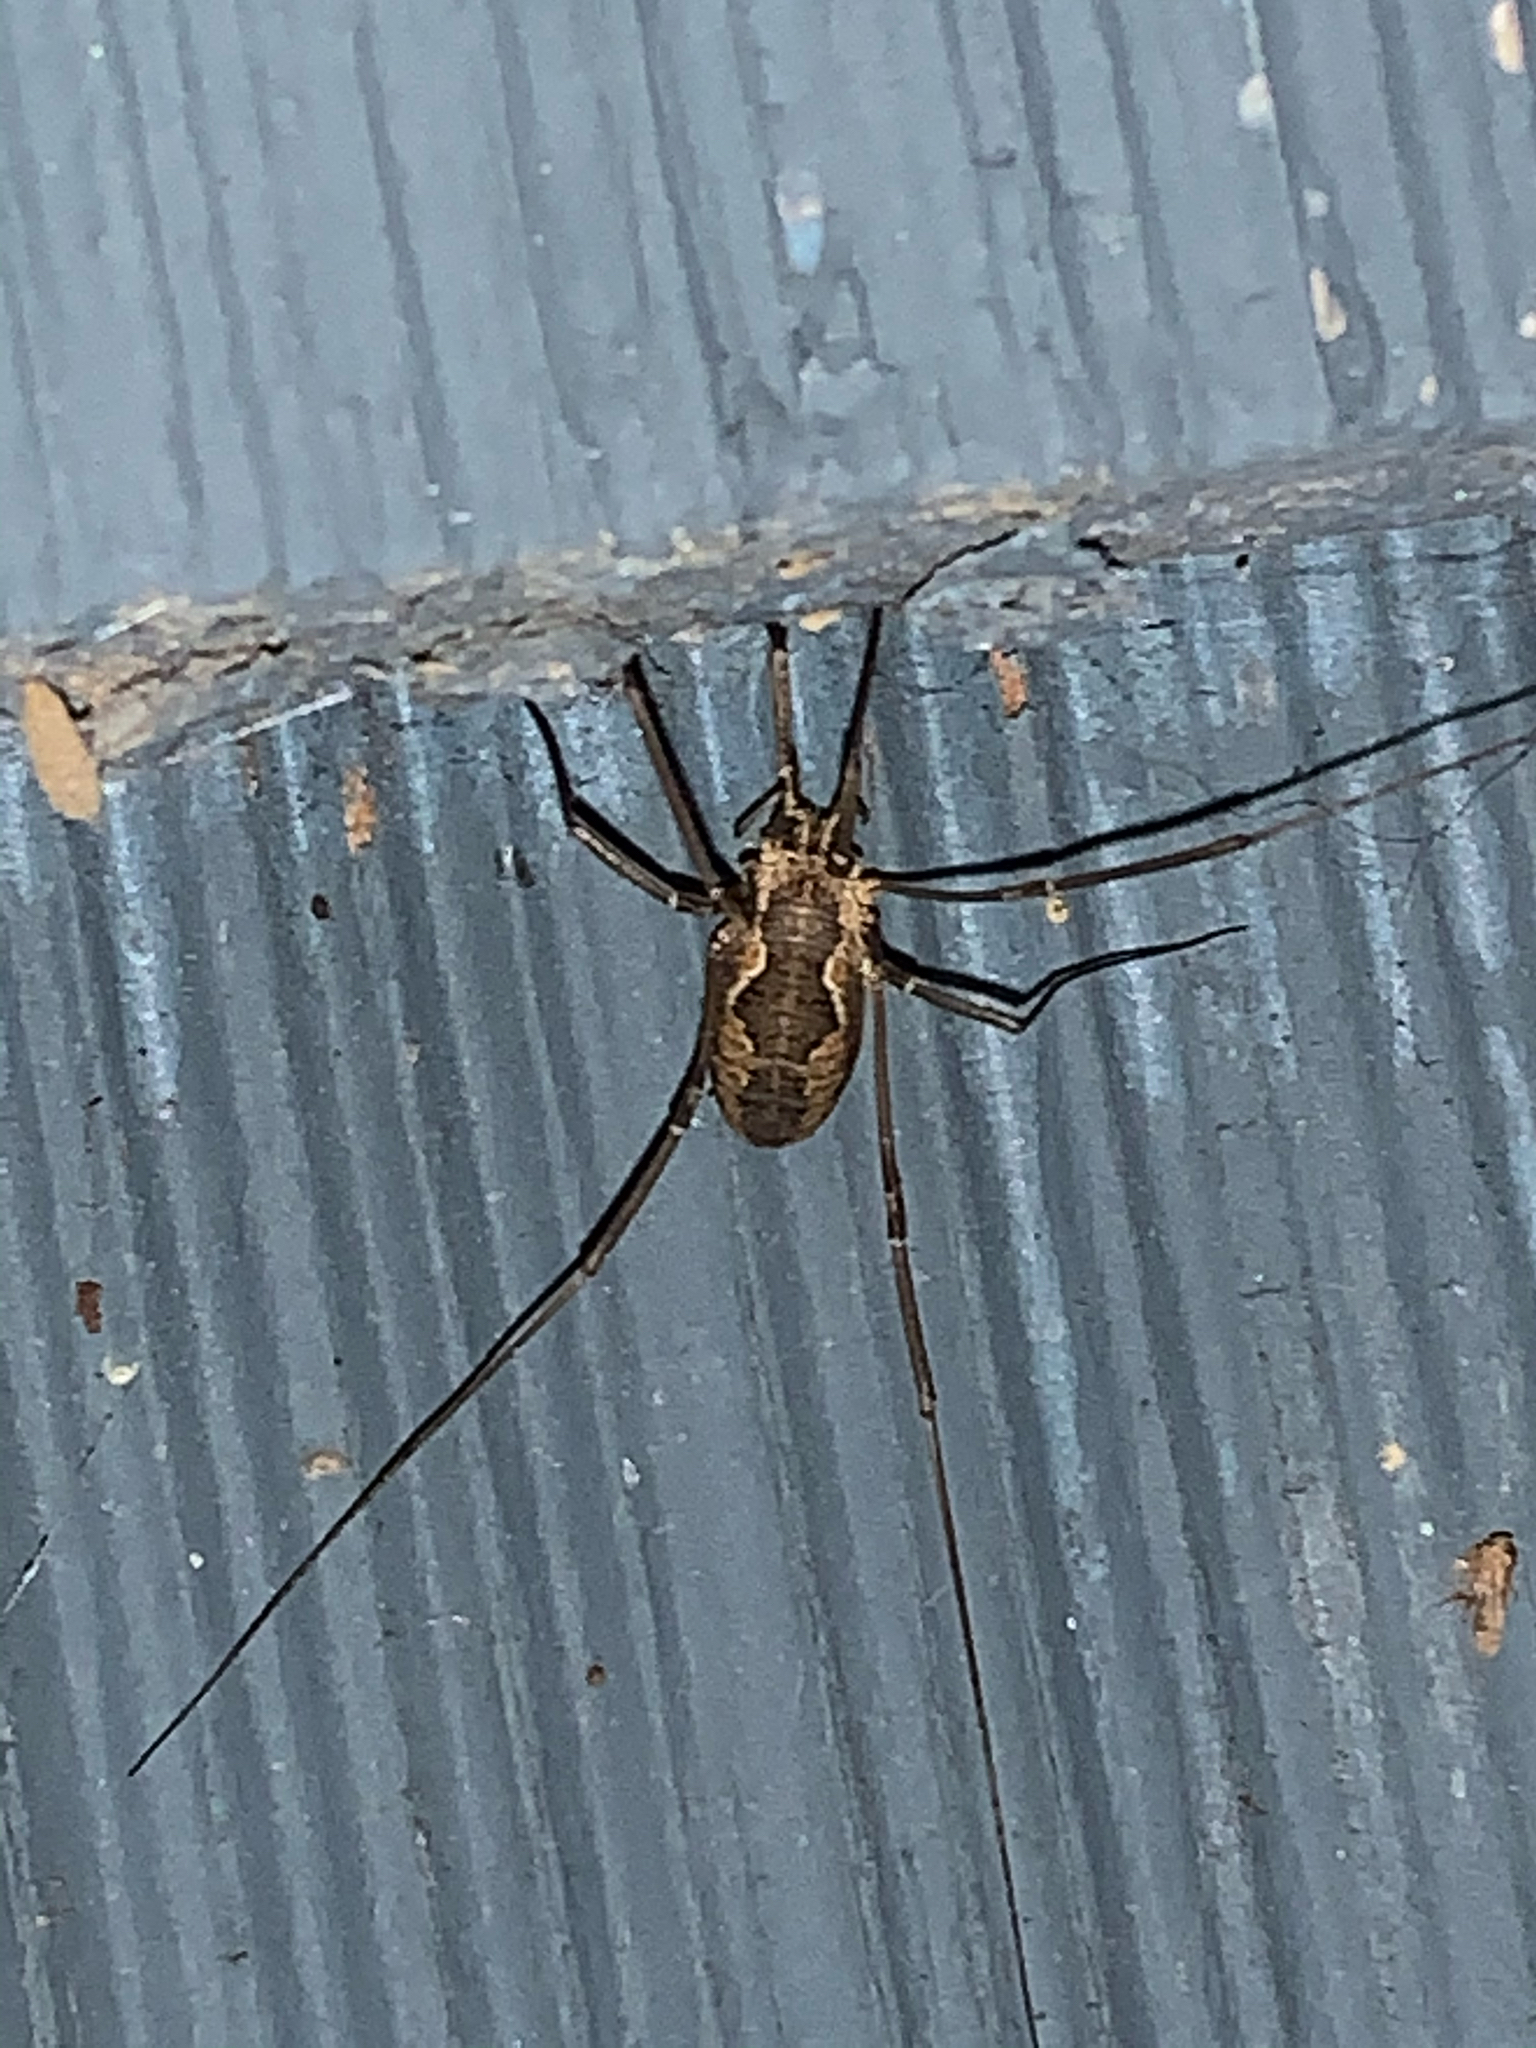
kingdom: Animalia
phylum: Arthropoda
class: Arachnida
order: Opiliones
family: Phalangiidae
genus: Phalangium
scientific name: Phalangium opilio
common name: Daddy longleg
